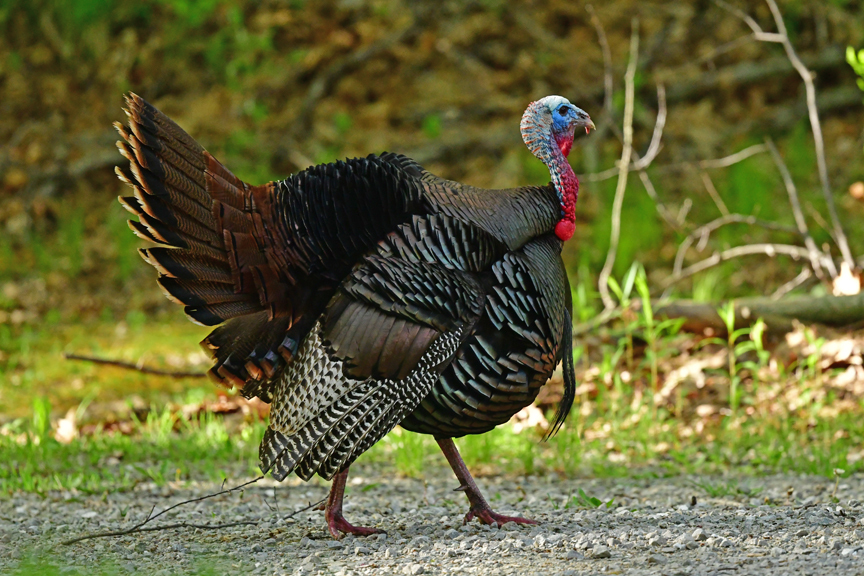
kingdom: Animalia
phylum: Chordata
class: Aves
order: Galliformes
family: Phasianidae
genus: Meleagris
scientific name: Meleagris gallopavo
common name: Wild turkey
